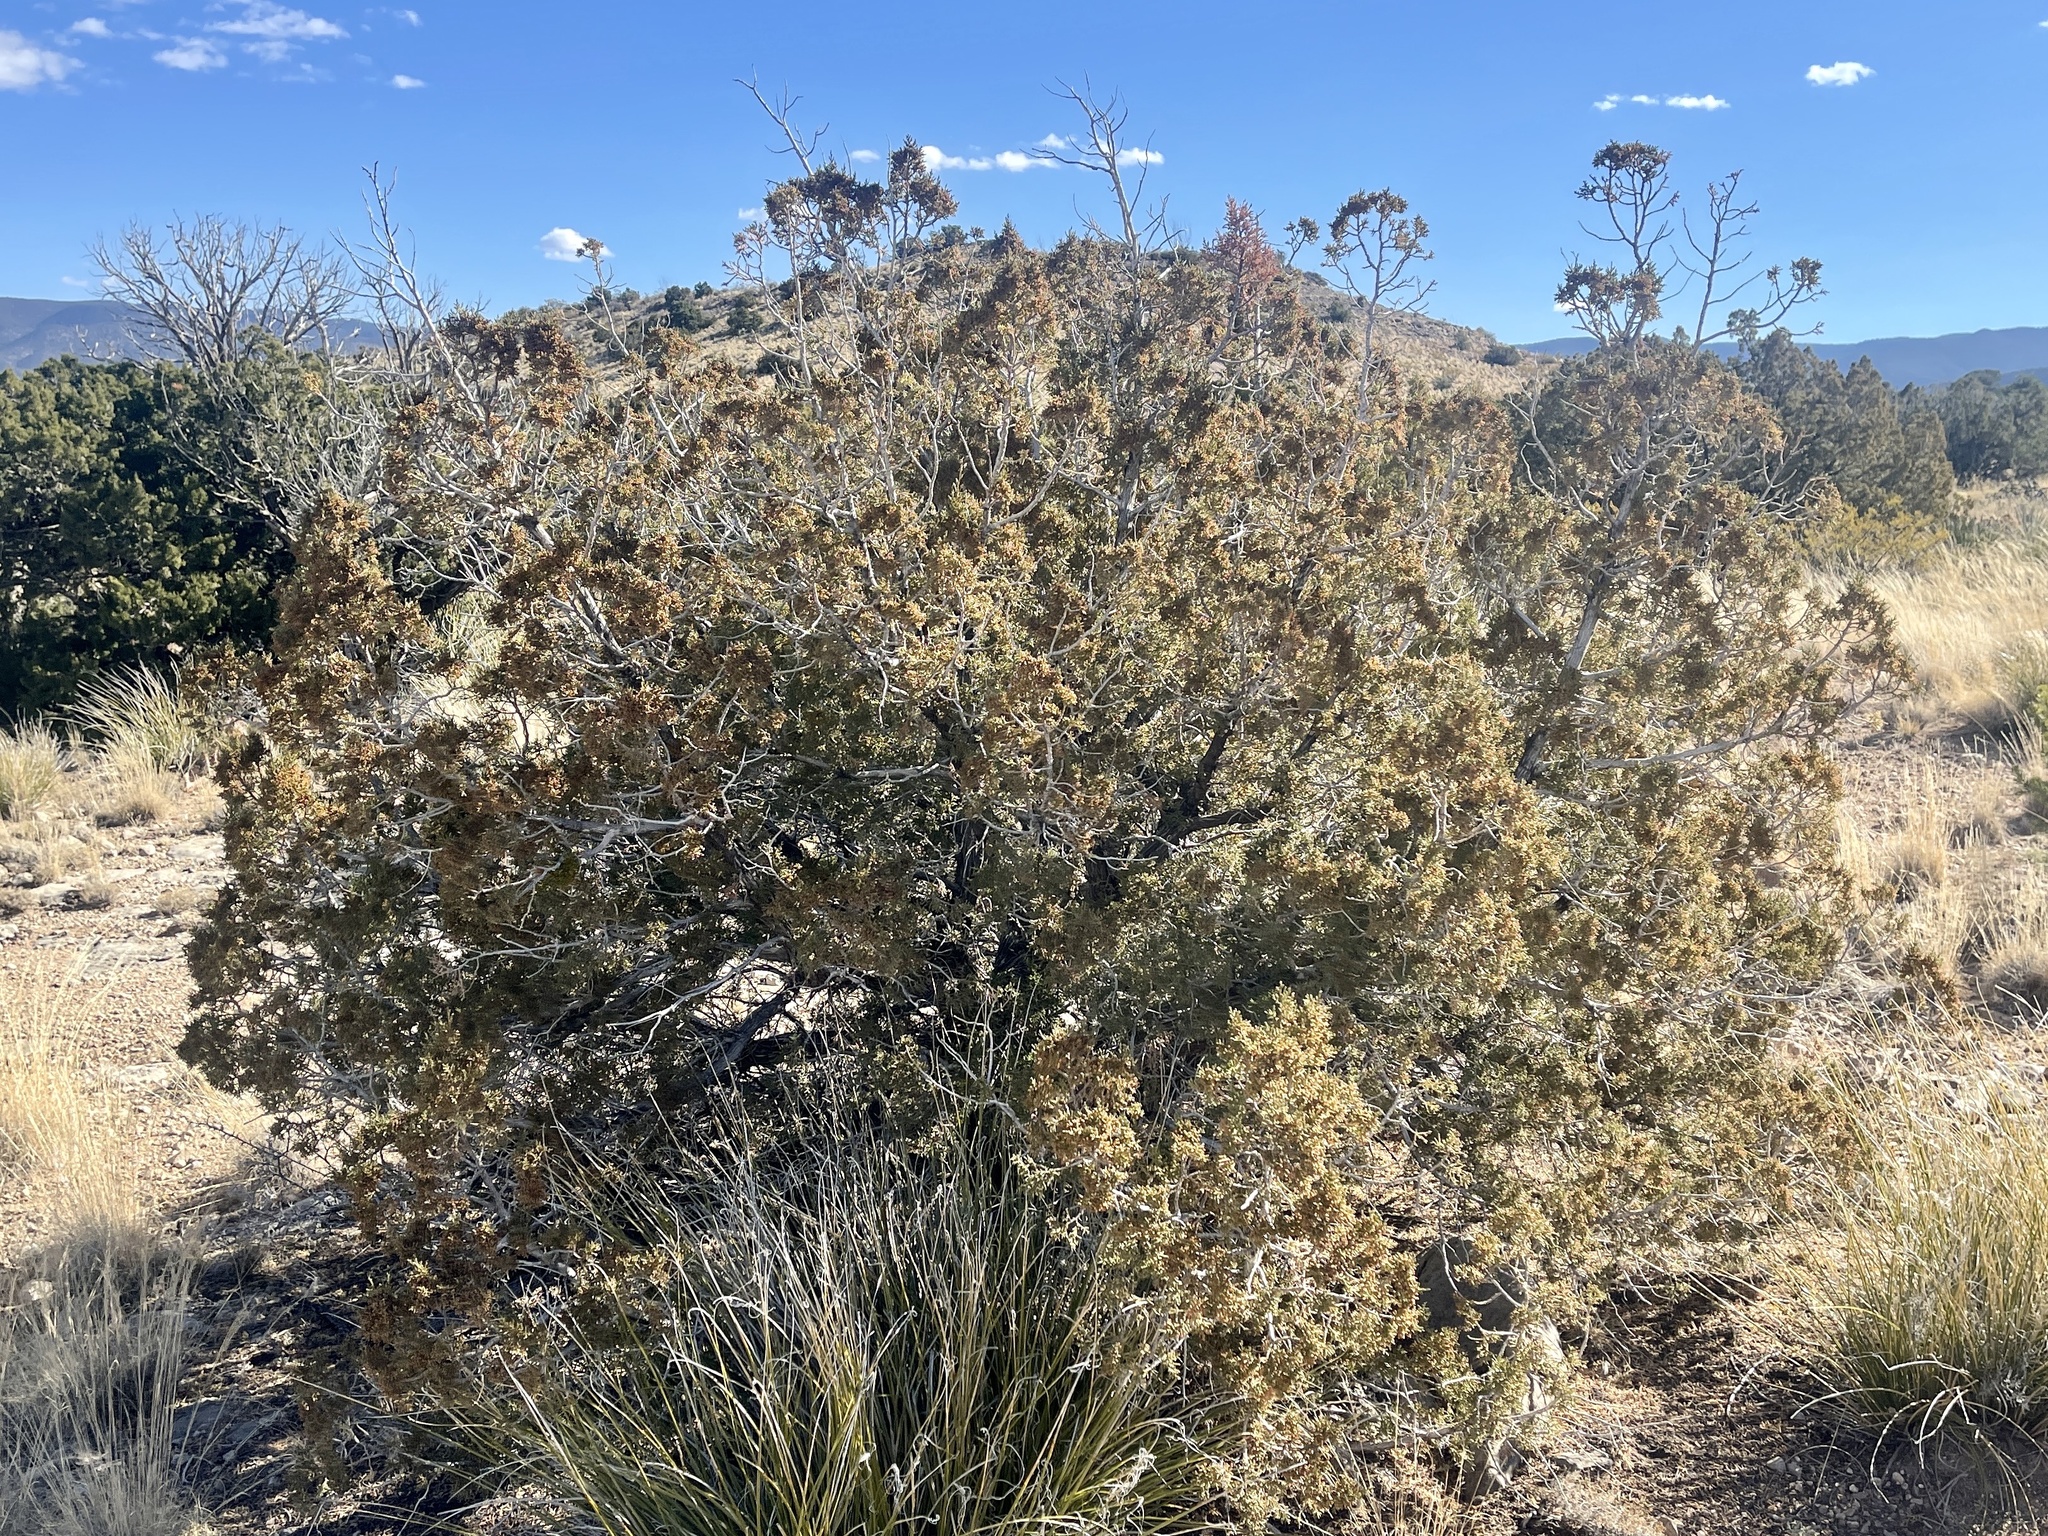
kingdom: Plantae
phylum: Tracheophyta
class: Pinopsida
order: Pinales
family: Cupressaceae
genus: Juniperus
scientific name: Juniperus monosperma
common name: One-seed juniper
